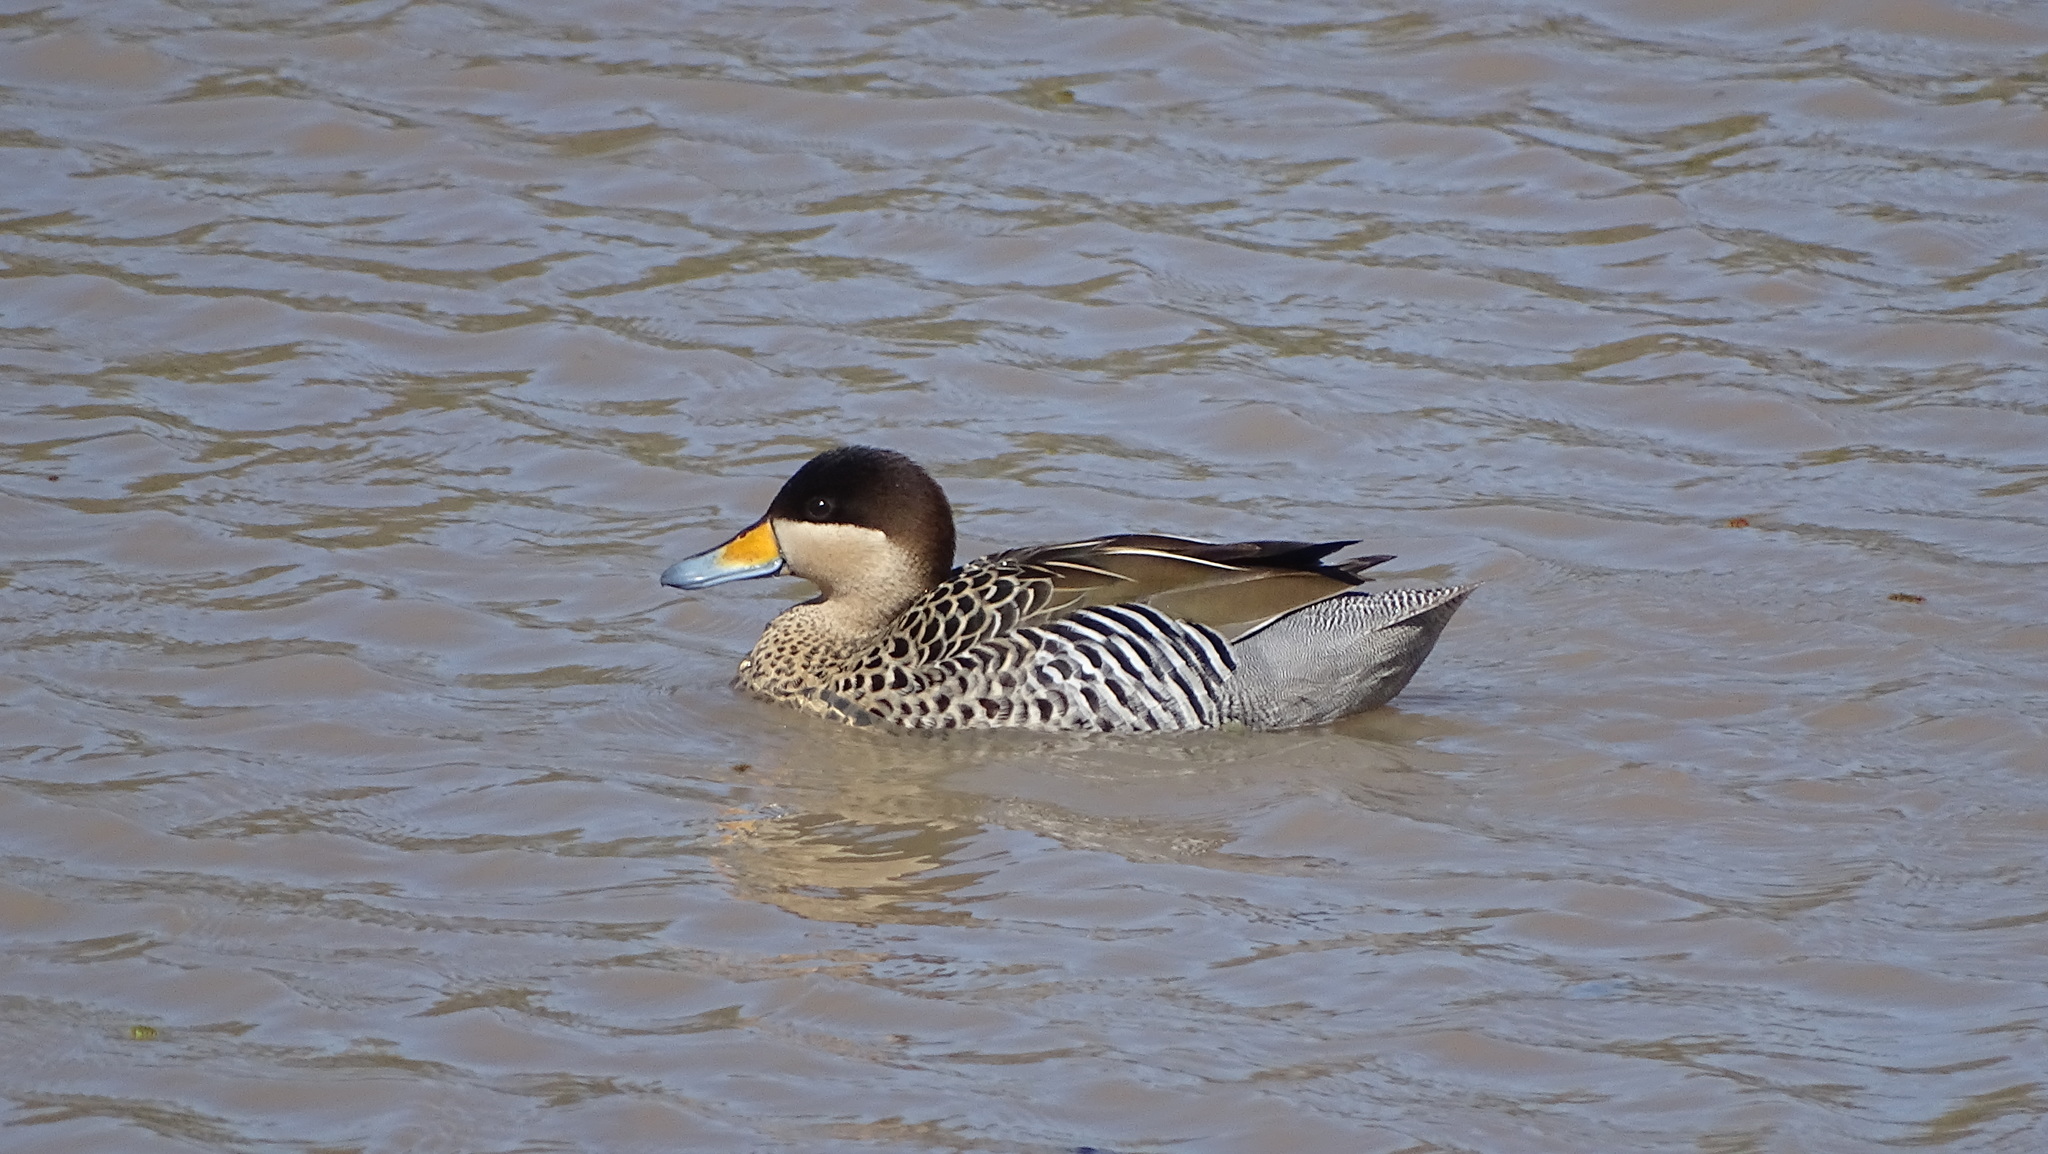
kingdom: Animalia
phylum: Chordata
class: Aves
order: Anseriformes
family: Anatidae
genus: Spatula
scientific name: Spatula versicolor
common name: Silver teal
